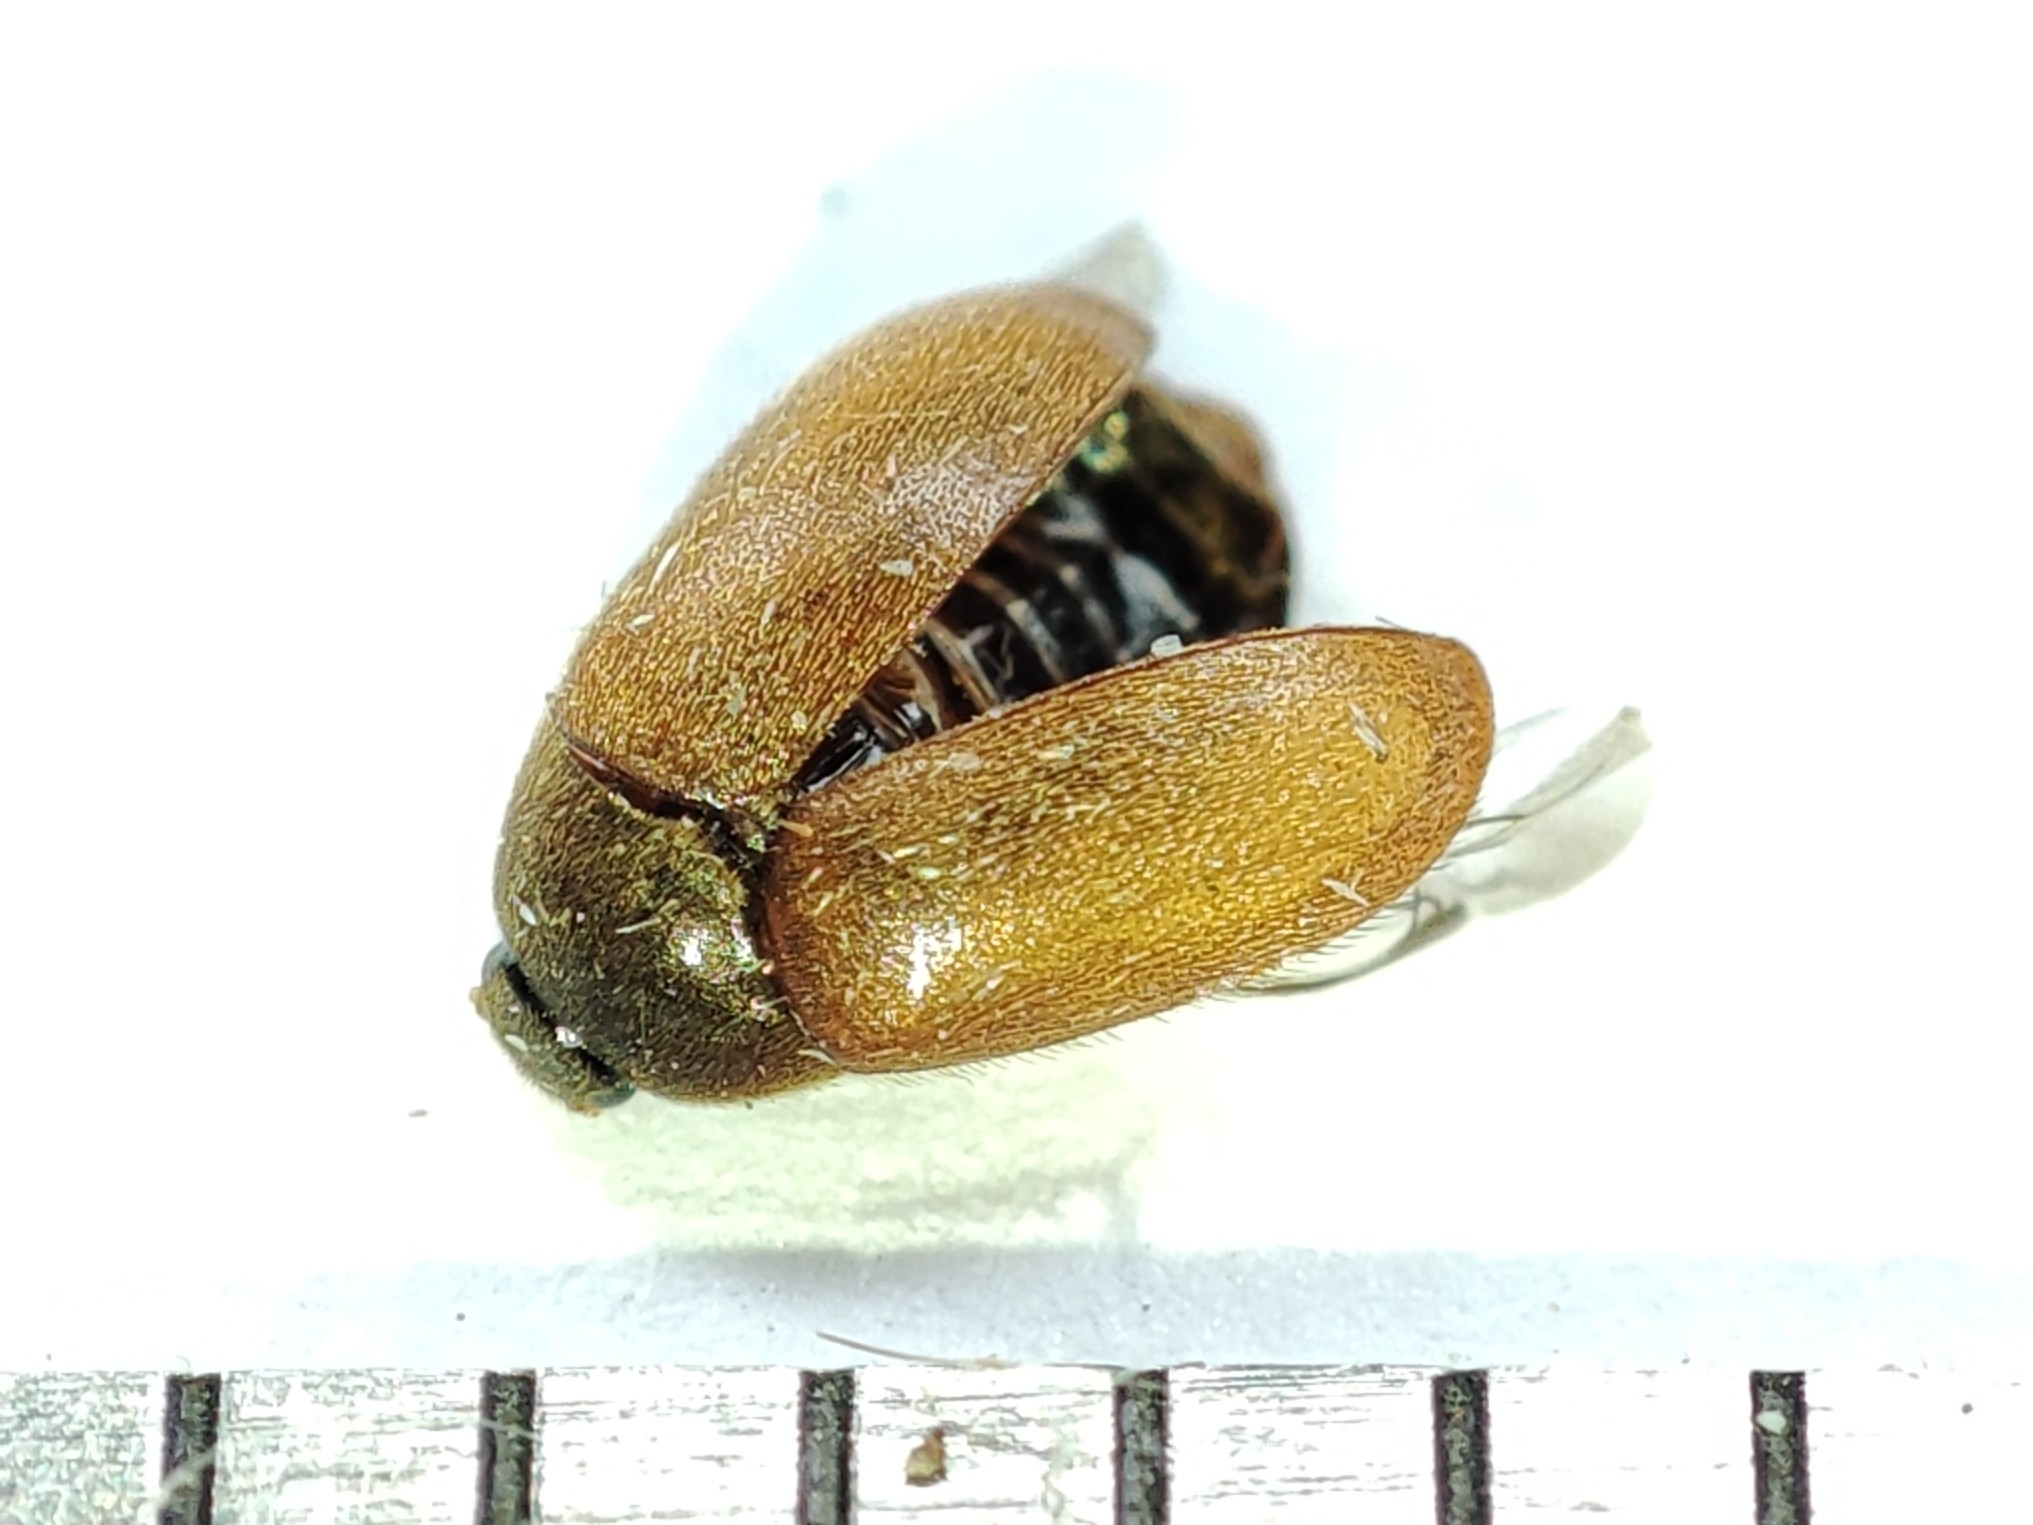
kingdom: Animalia
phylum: Arthropoda
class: Insecta
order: Coleoptera
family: Dermestidae
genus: Attagenus
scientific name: Attagenus smirnovi
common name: Brown carpet beetle
